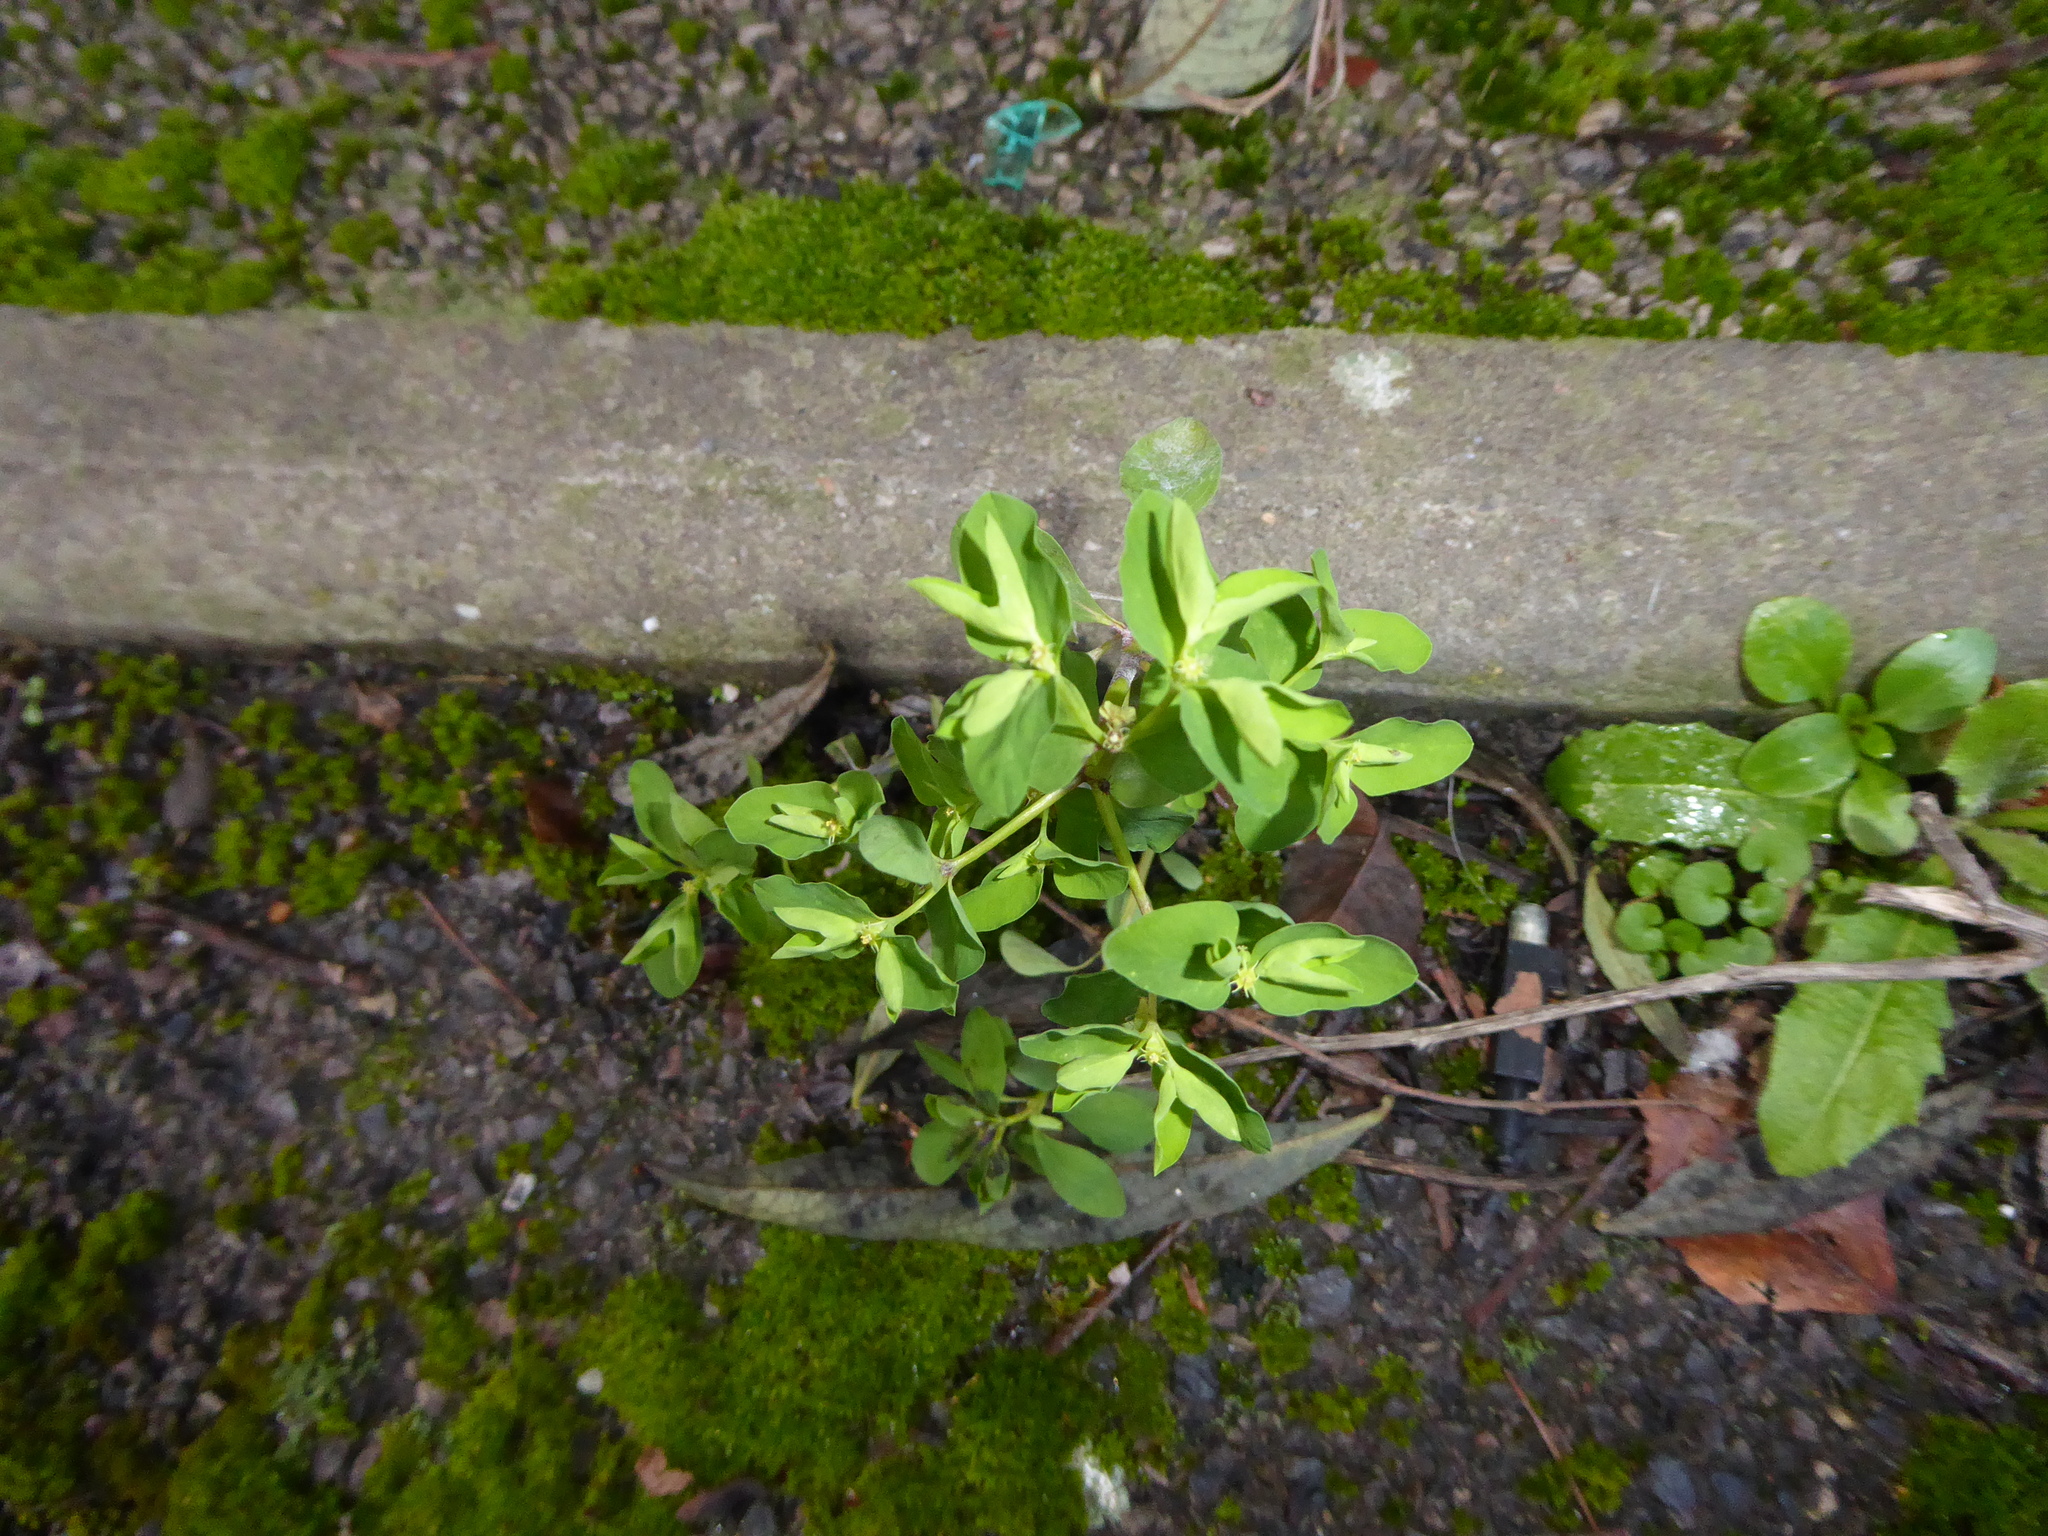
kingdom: Plantae
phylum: Tracheophyta
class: Magnoliopsida
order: Malpighiales
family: Euphorbiaceae
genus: Euphorbia
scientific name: Euphorbia peplus
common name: Petty spurge
